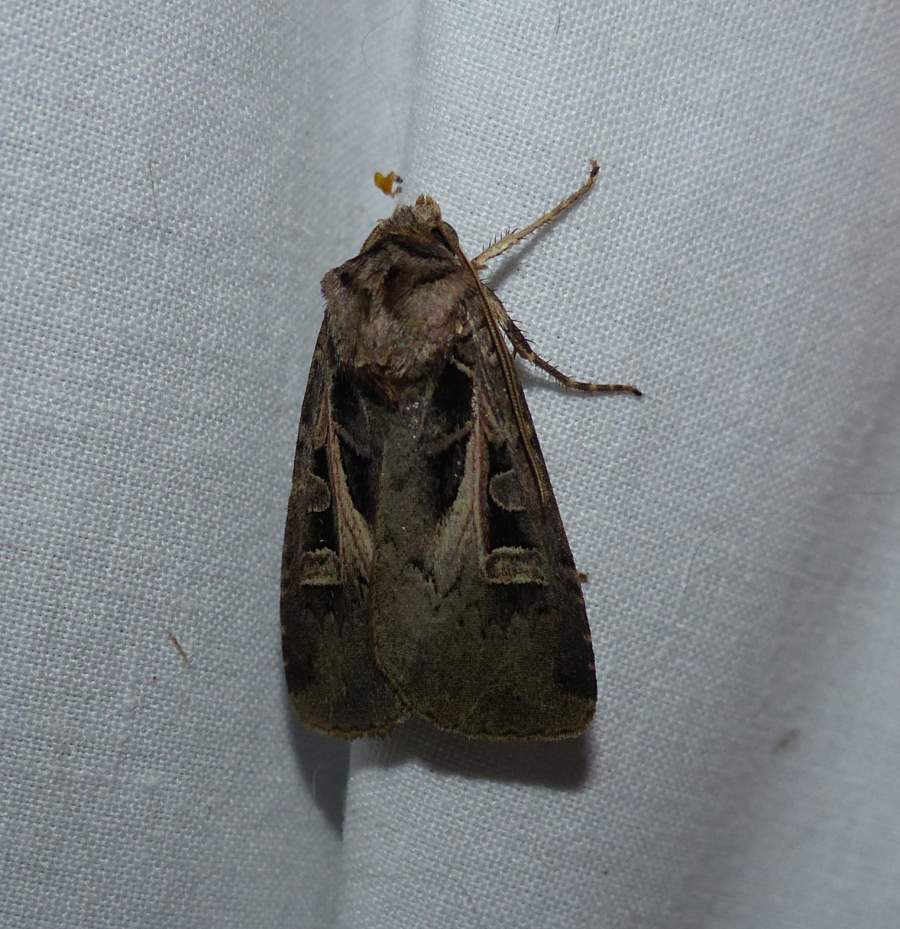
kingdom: Animalia
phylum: Arthropoda
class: Insecta
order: Lepidoptera
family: Noctuidae
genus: Feltia
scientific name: Feltia herilis
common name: Master's dart
